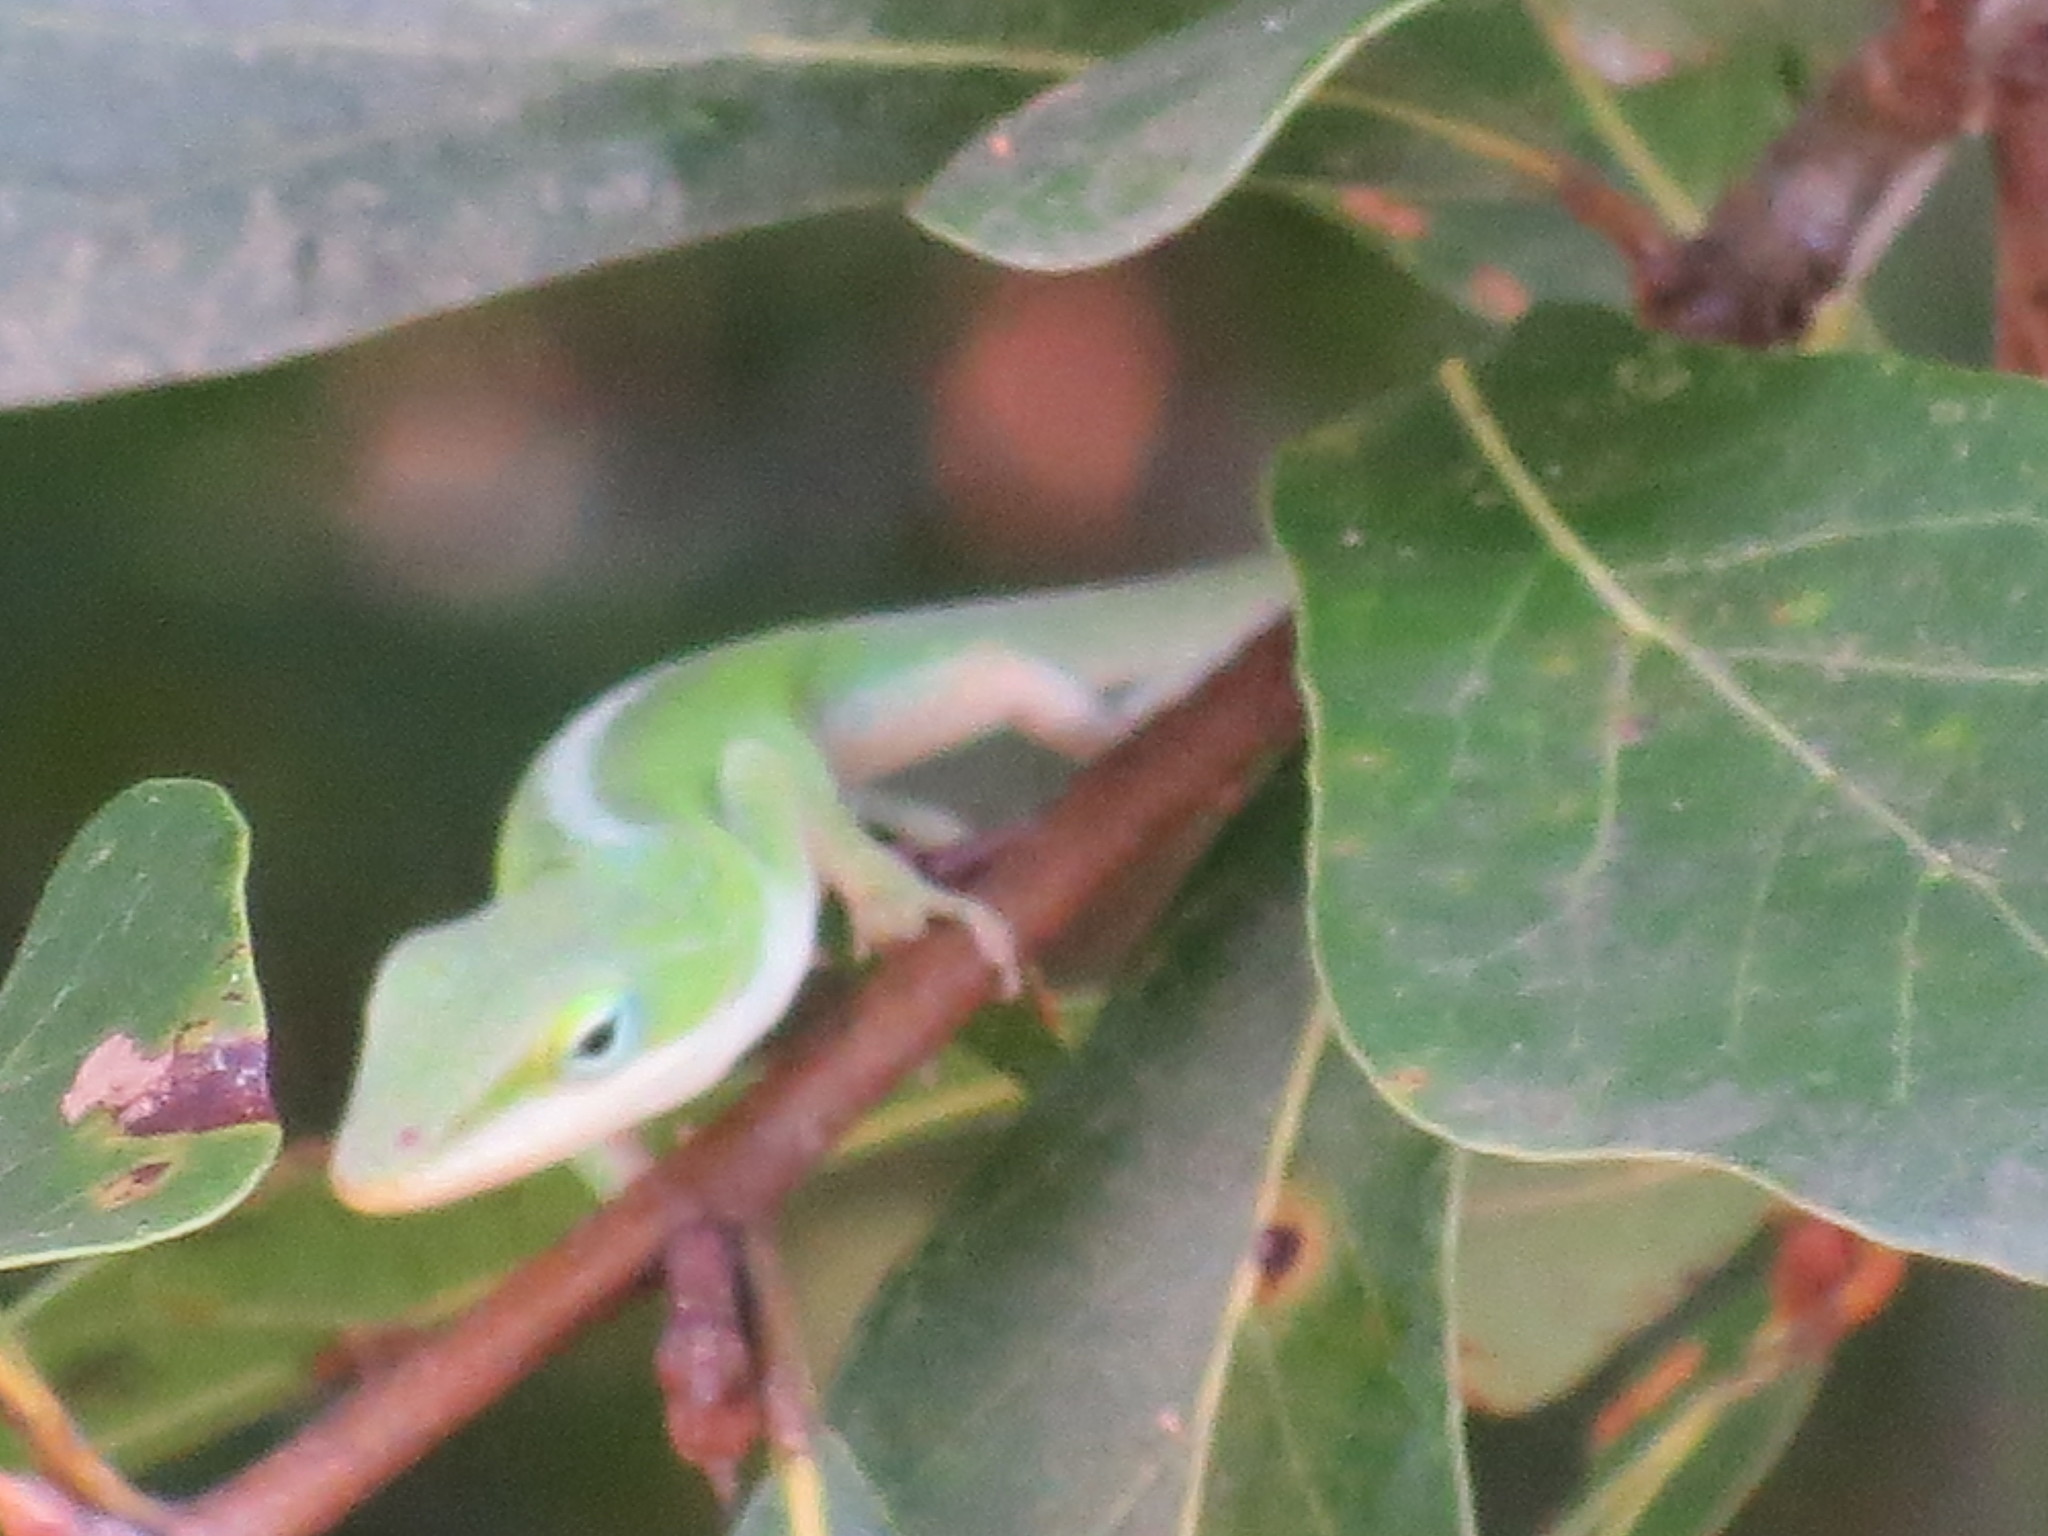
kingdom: Animalia
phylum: Chordata
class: Squamata
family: Dactyloidae
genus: Anolis
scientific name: Anolis carolinensis
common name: Green anole
